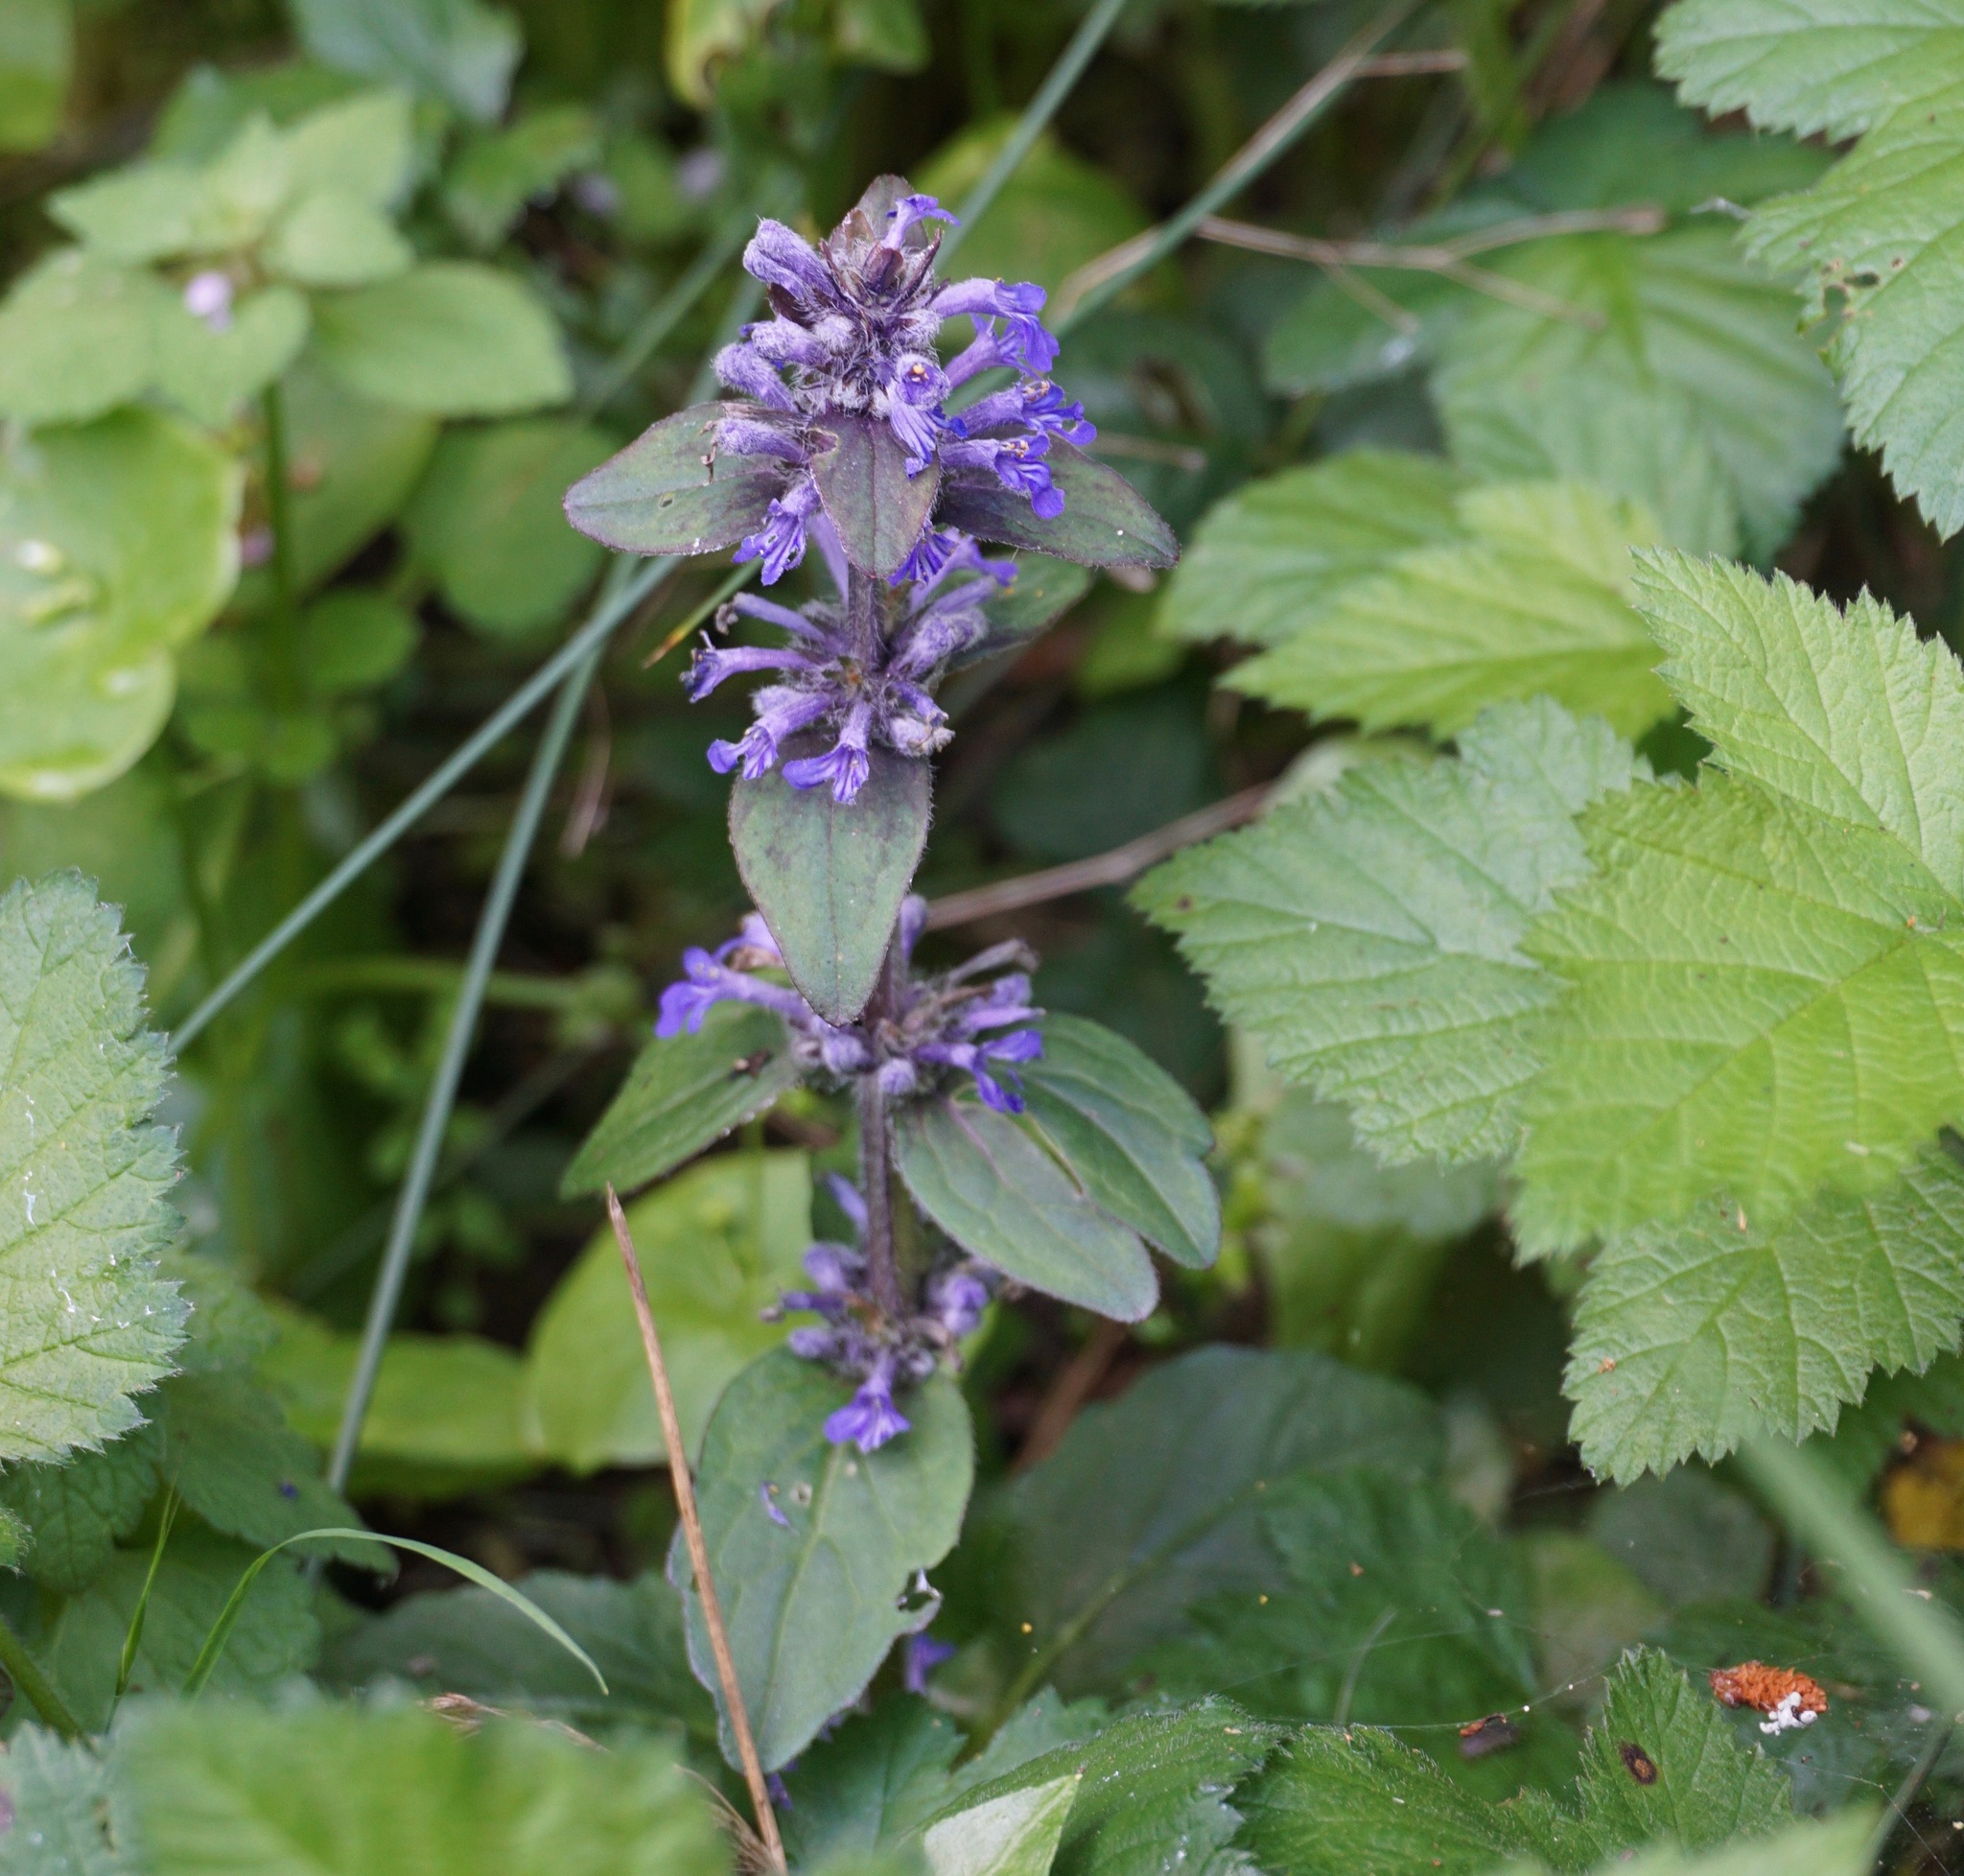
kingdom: Plantae
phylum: Tracheophyta
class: Magnoliopsida
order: Lamiales
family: Lamiaceae
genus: Ajuga
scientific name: Ajuga reptans
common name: Bugle
